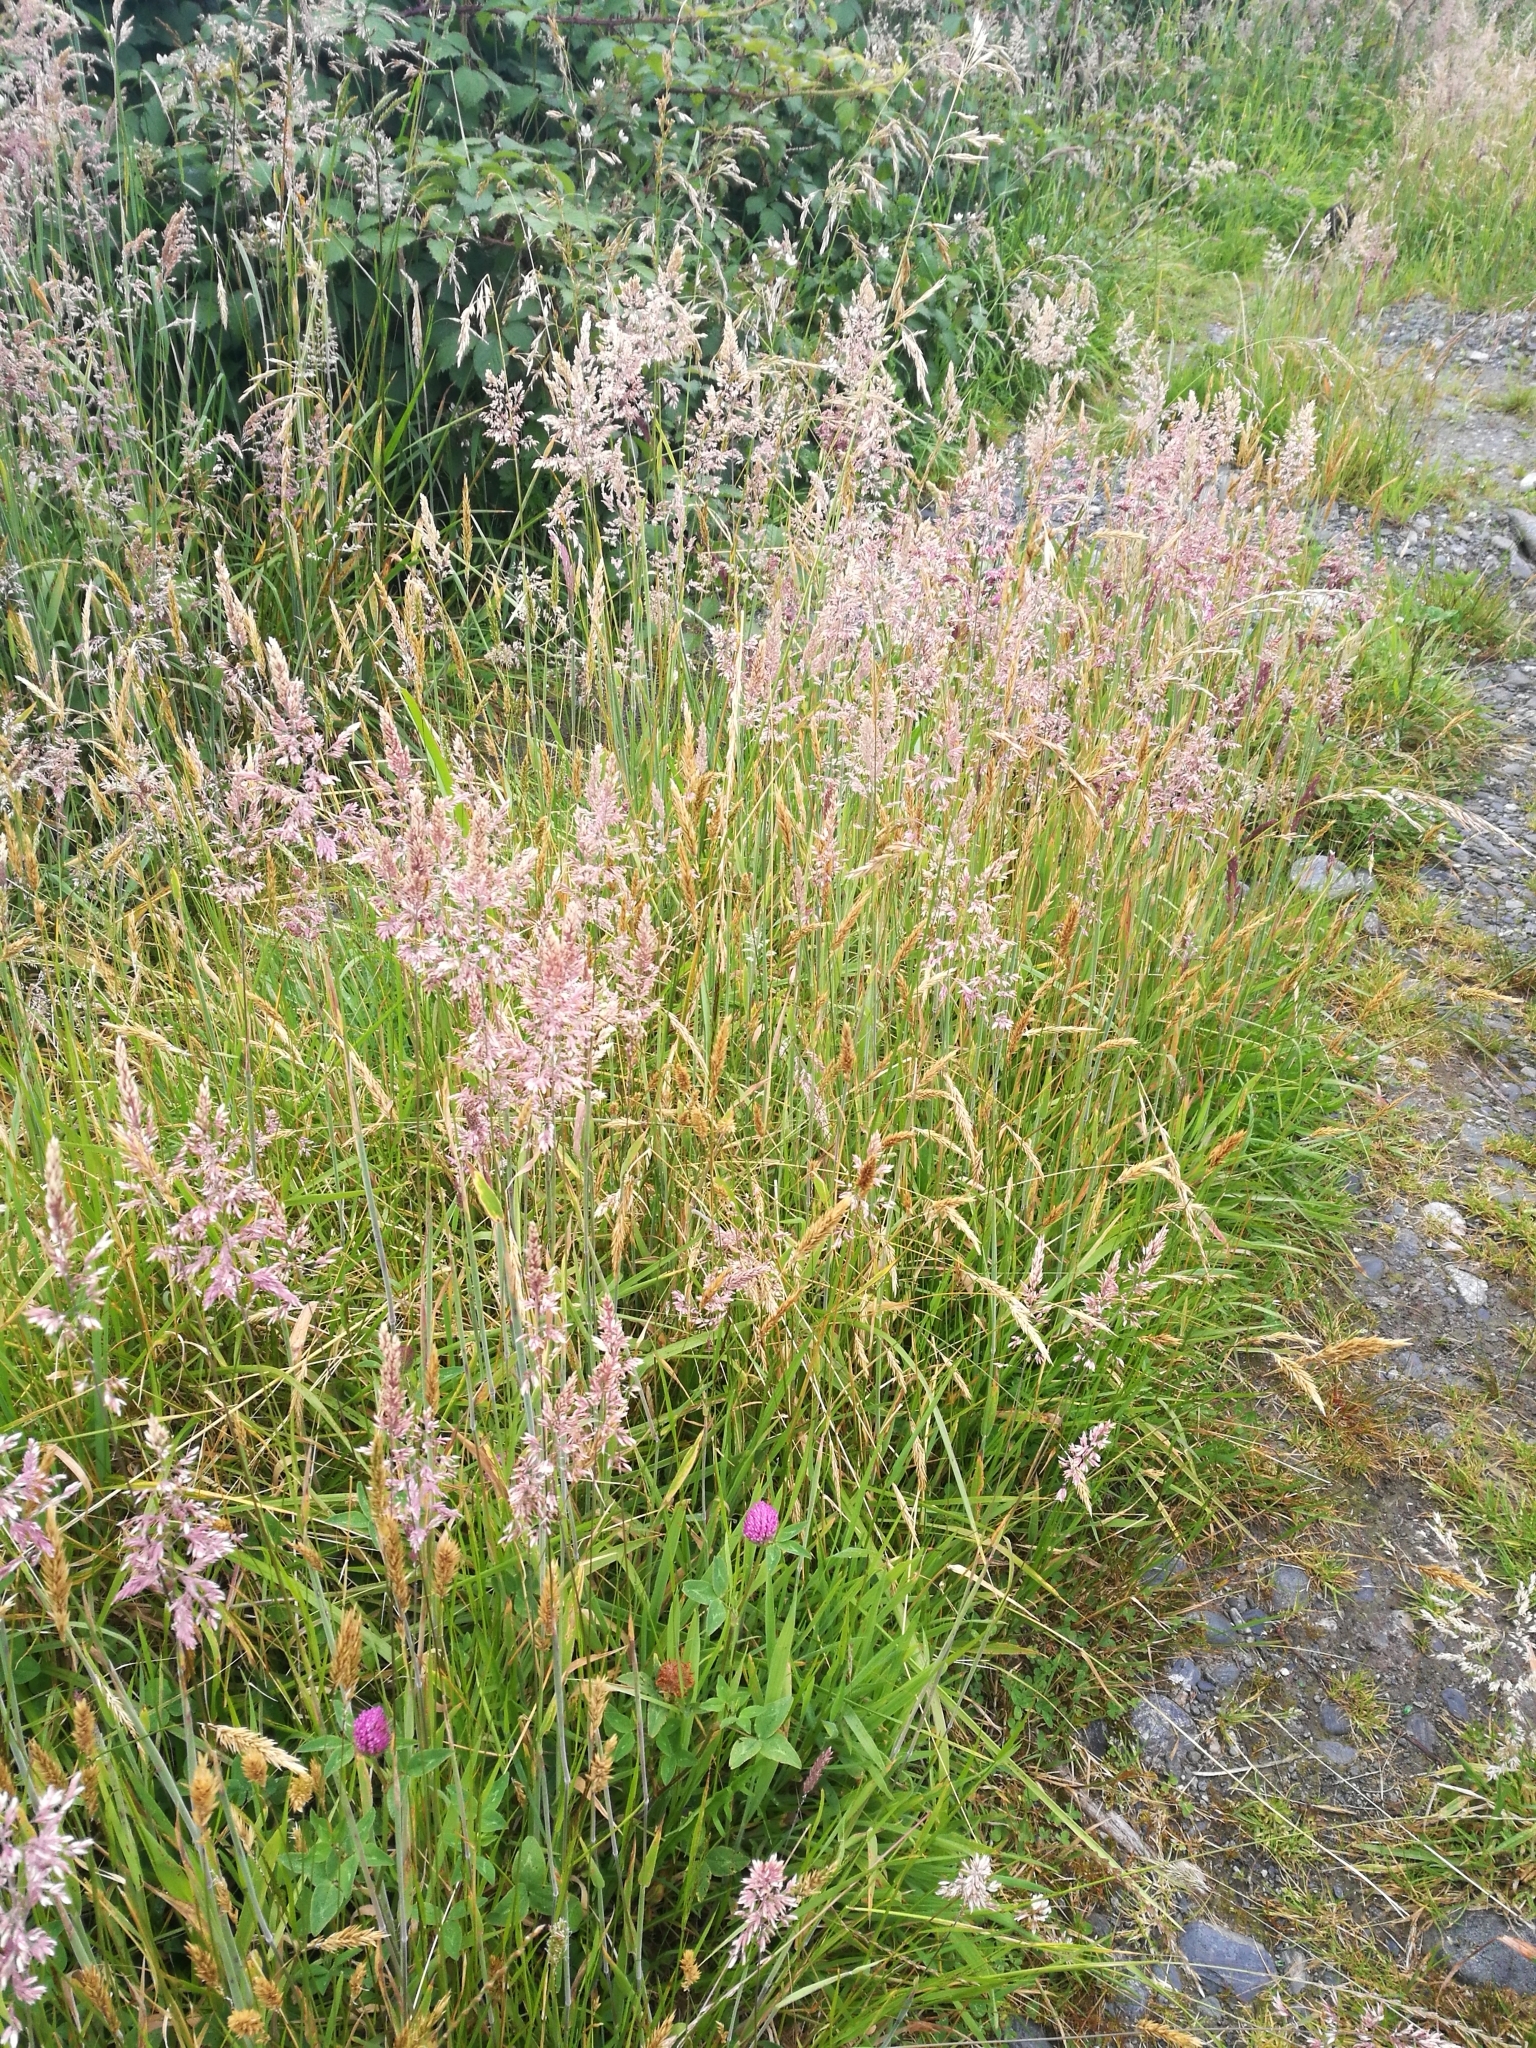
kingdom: Plantae
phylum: Tracheophyta
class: Liliopsida
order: Poales
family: Poaceae
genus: Holcus
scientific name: Holcus lanatus
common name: Yorkshire-fog
